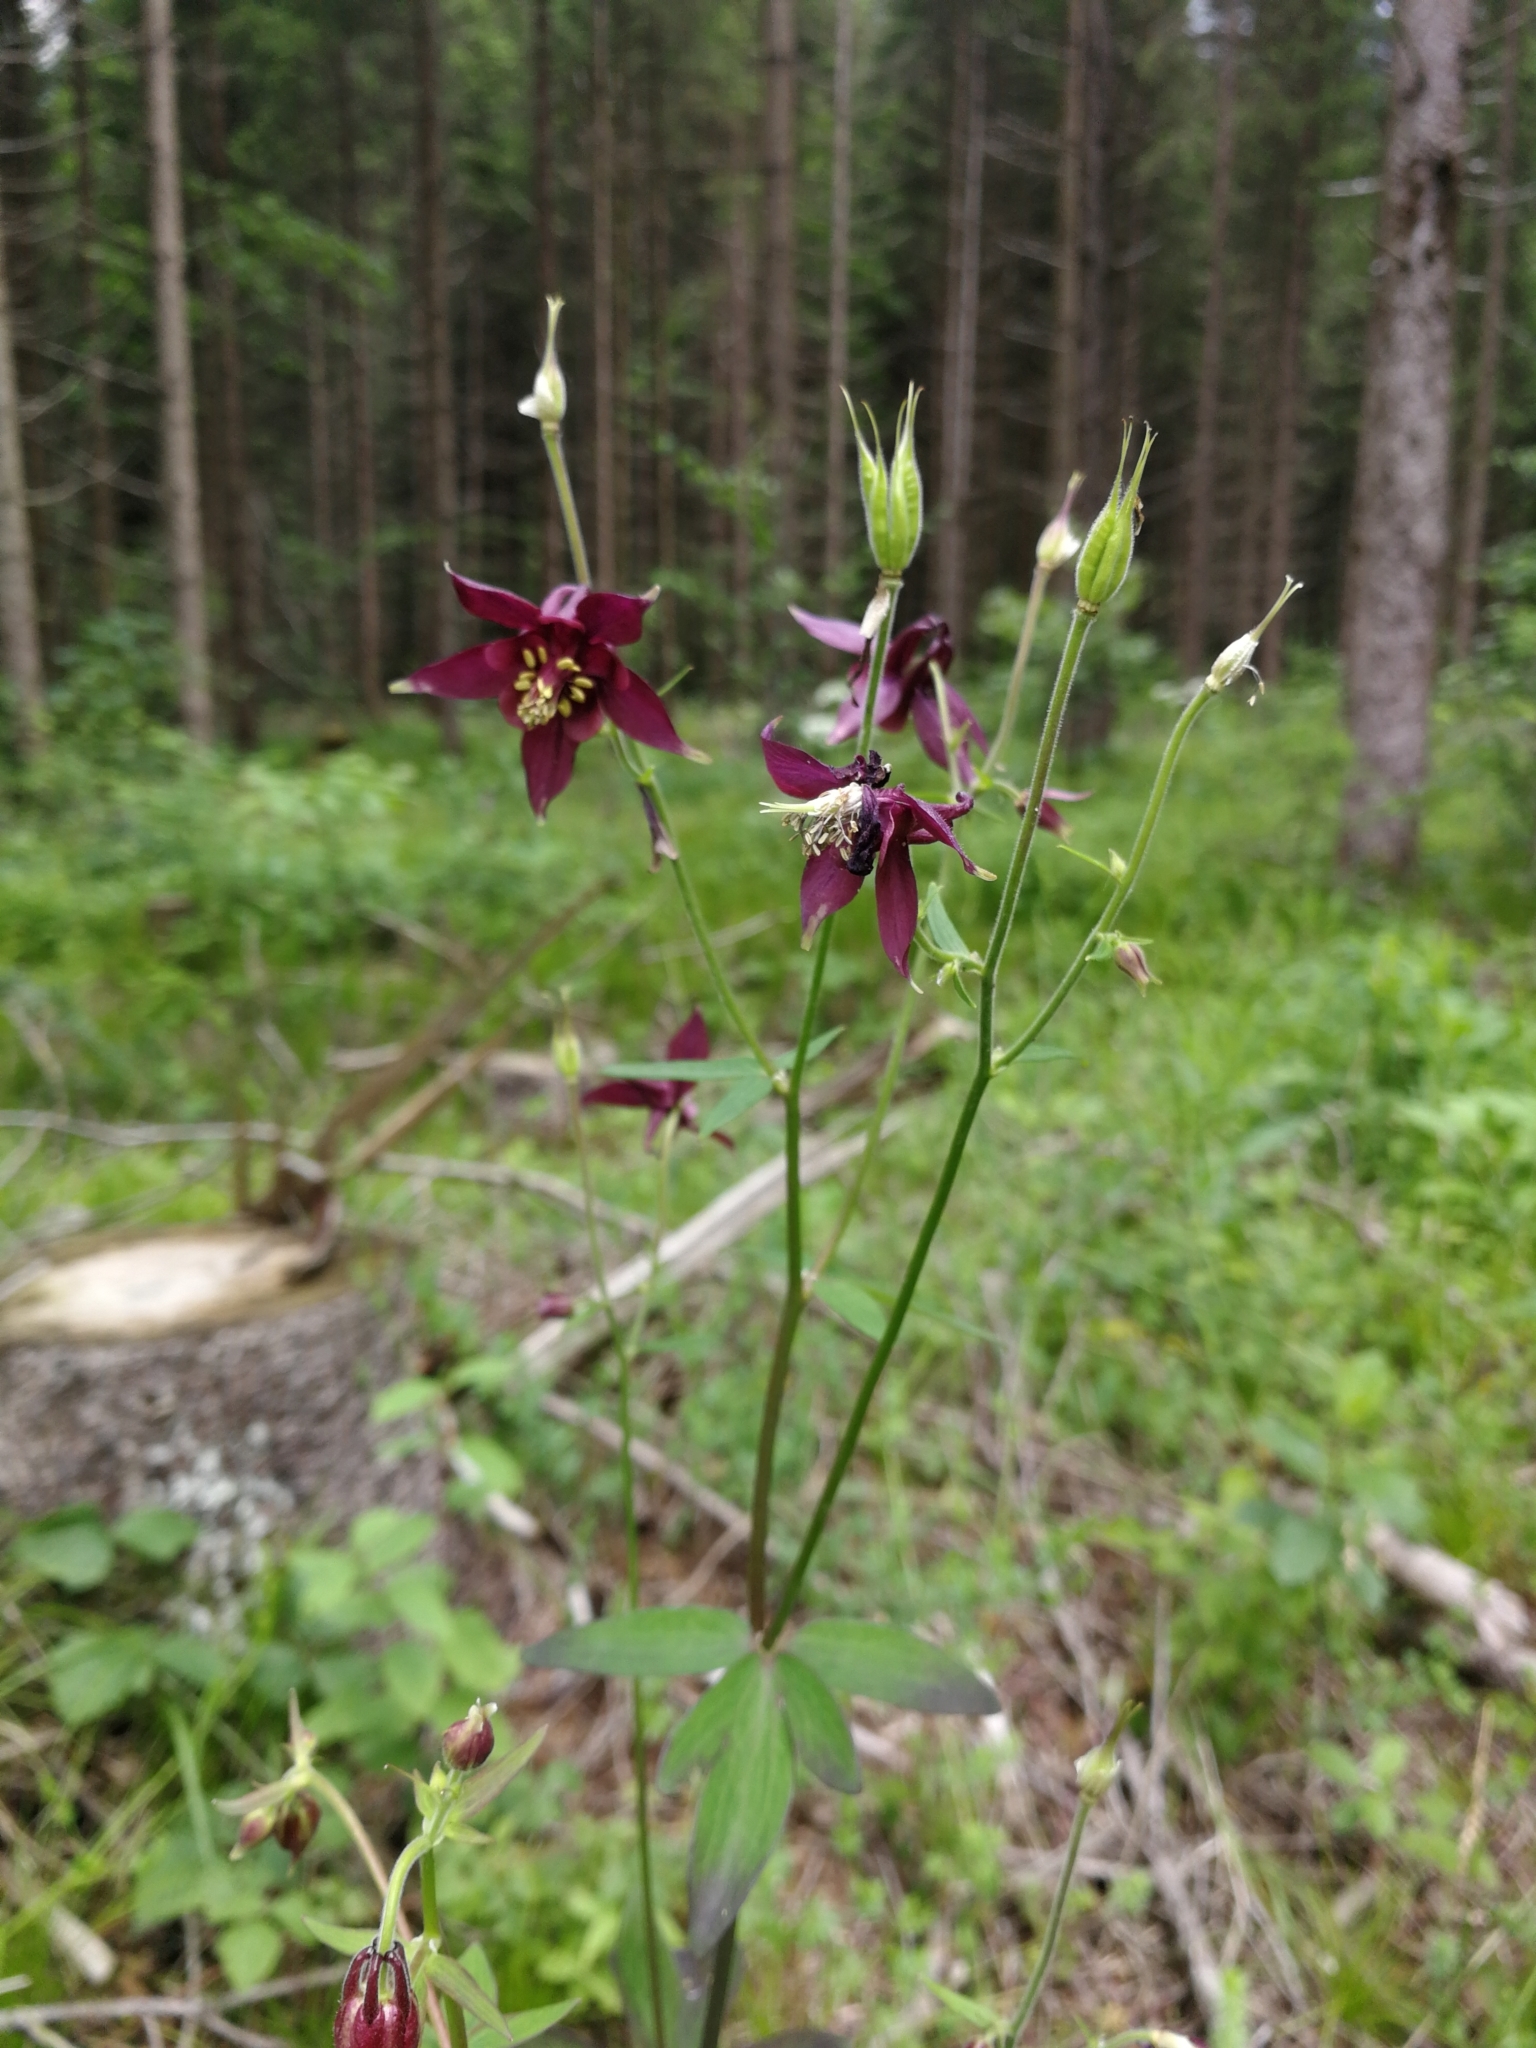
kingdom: Plantae
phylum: Tracheophyta
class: Magnoliopsida
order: Ranunculales
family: Ranunculaceae
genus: Aquilegia
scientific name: Aquilegia atrata
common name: Dark columbine
